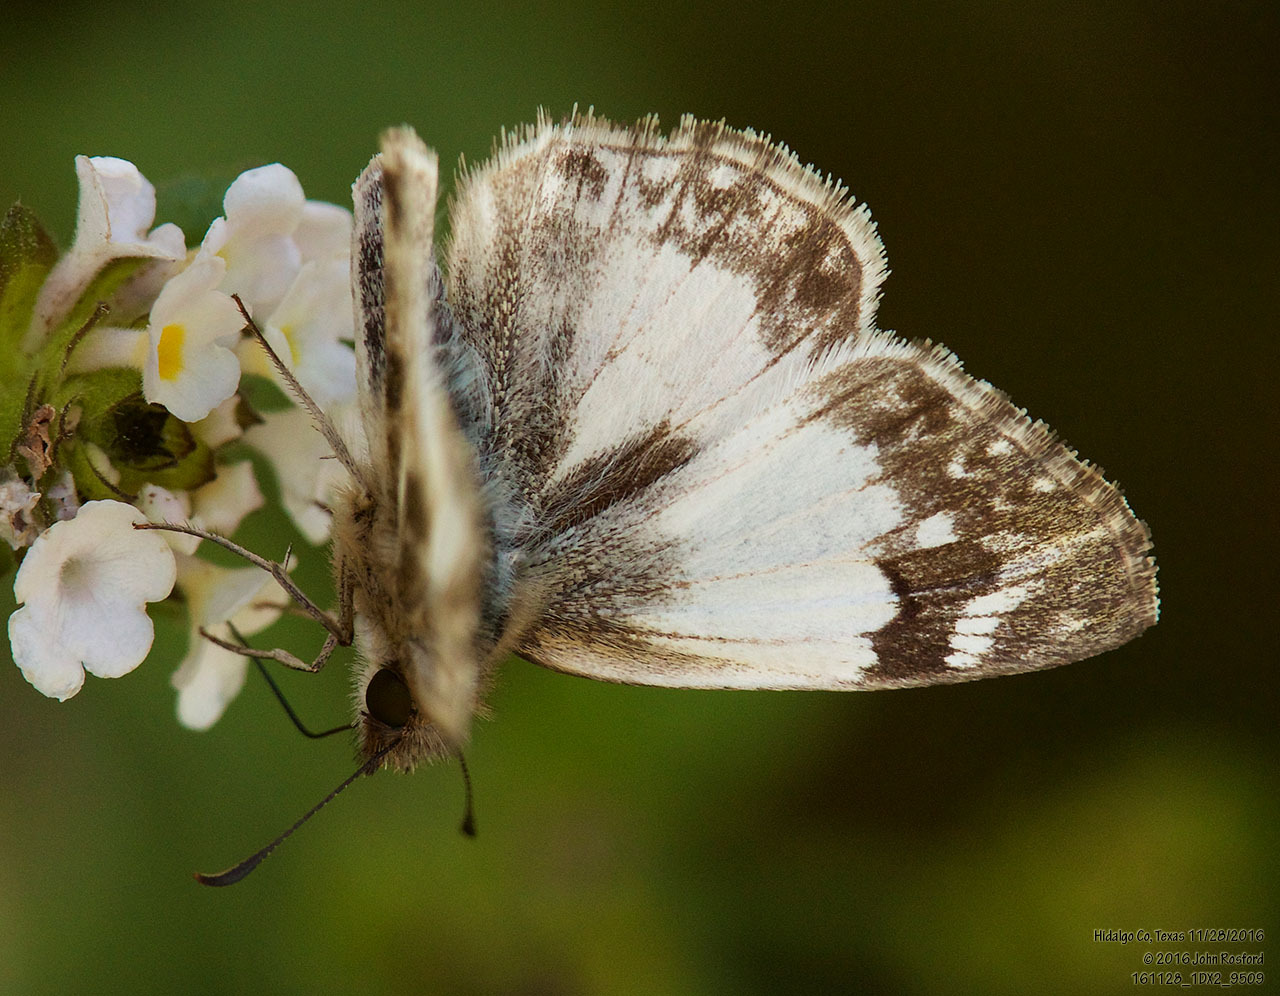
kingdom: Animalia
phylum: Arthropoda
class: Insecta
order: Lepidoptera
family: Hesperiidae
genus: Heliopetes
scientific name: Heliopetes macaira
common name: Turk's-cap white-skipper
